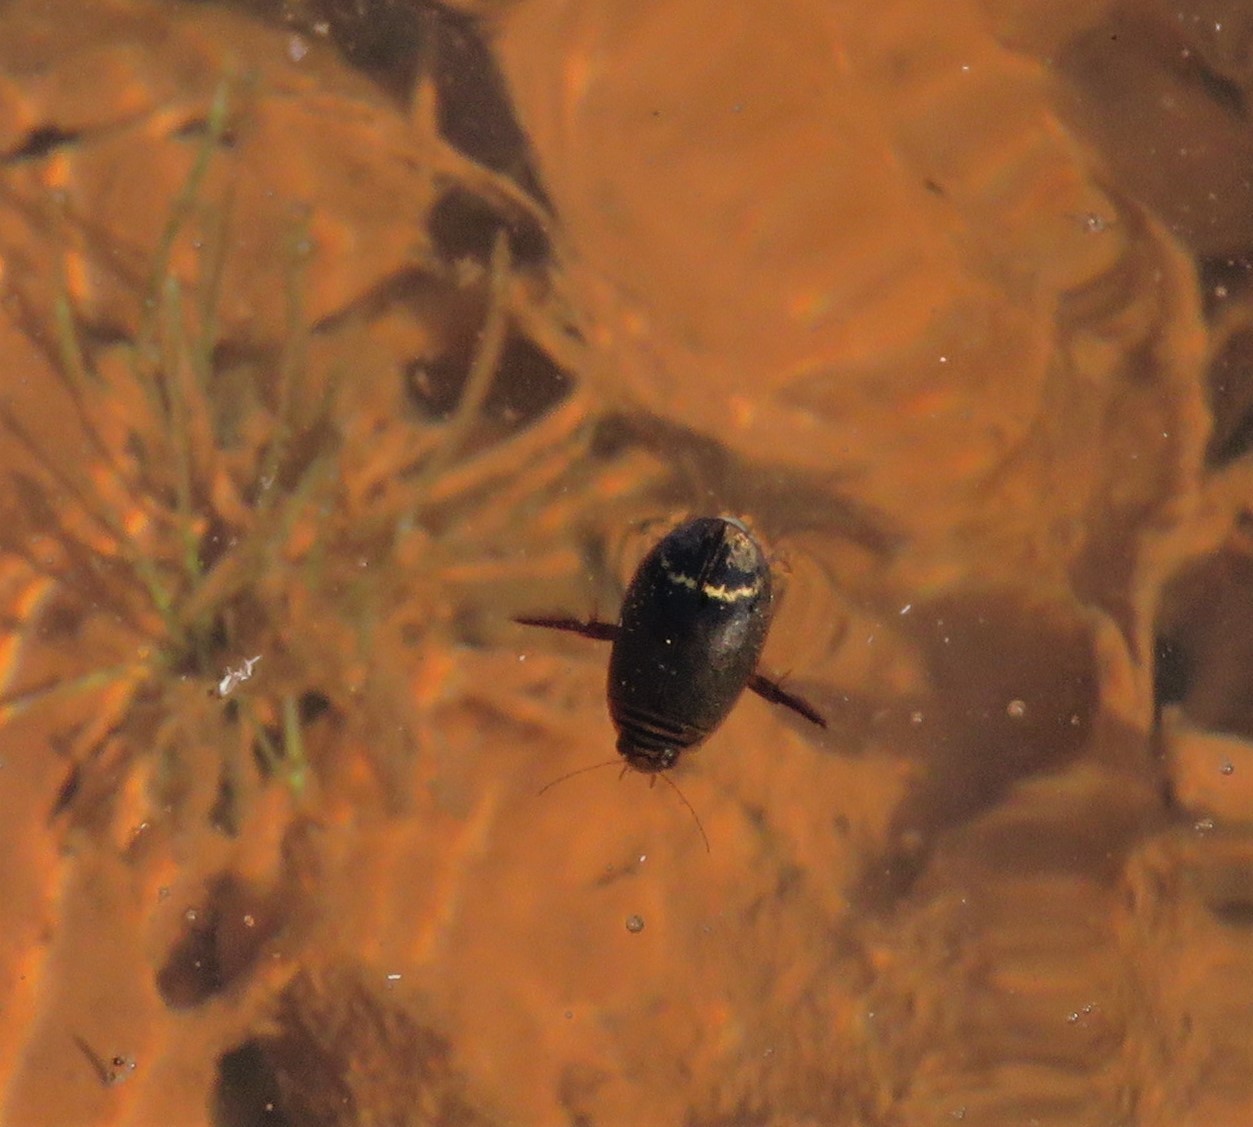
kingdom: Animalia
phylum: Arthropoda
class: Insecta
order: Coleoptera
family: Dytiscidae
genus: Acilius
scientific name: Acilius
